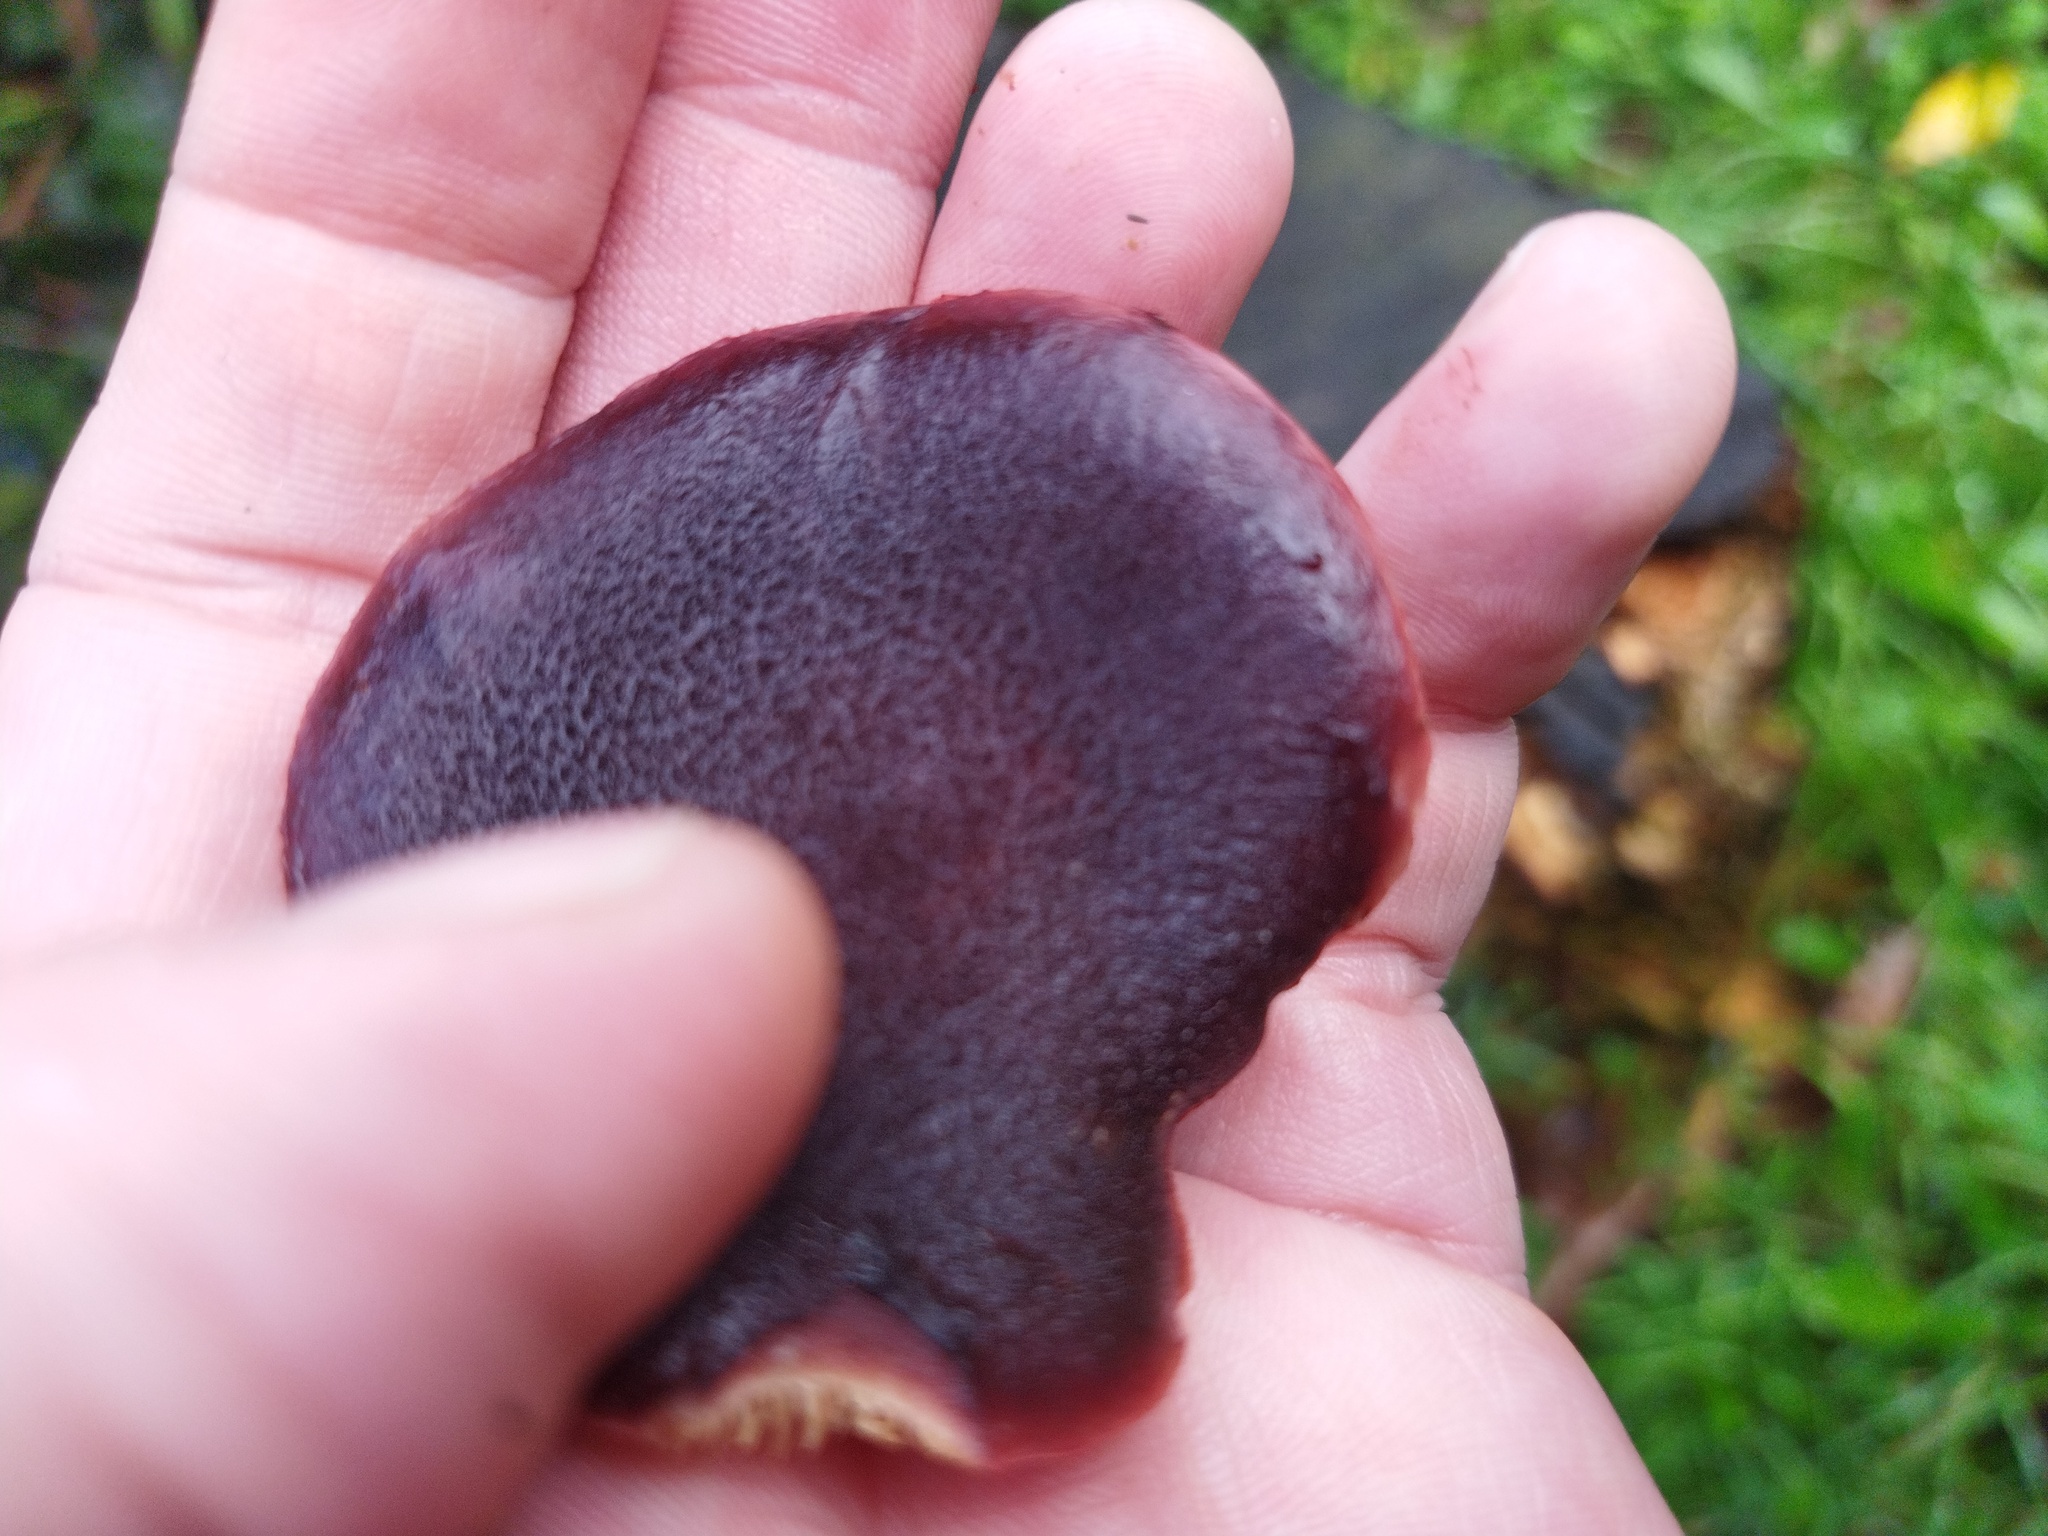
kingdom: Fungi
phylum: Basidiomycota
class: Agaricomycetes
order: Agaricales
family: Hymenogastraceae
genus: Gymnopilus
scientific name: Gymnopilus purpuratus
